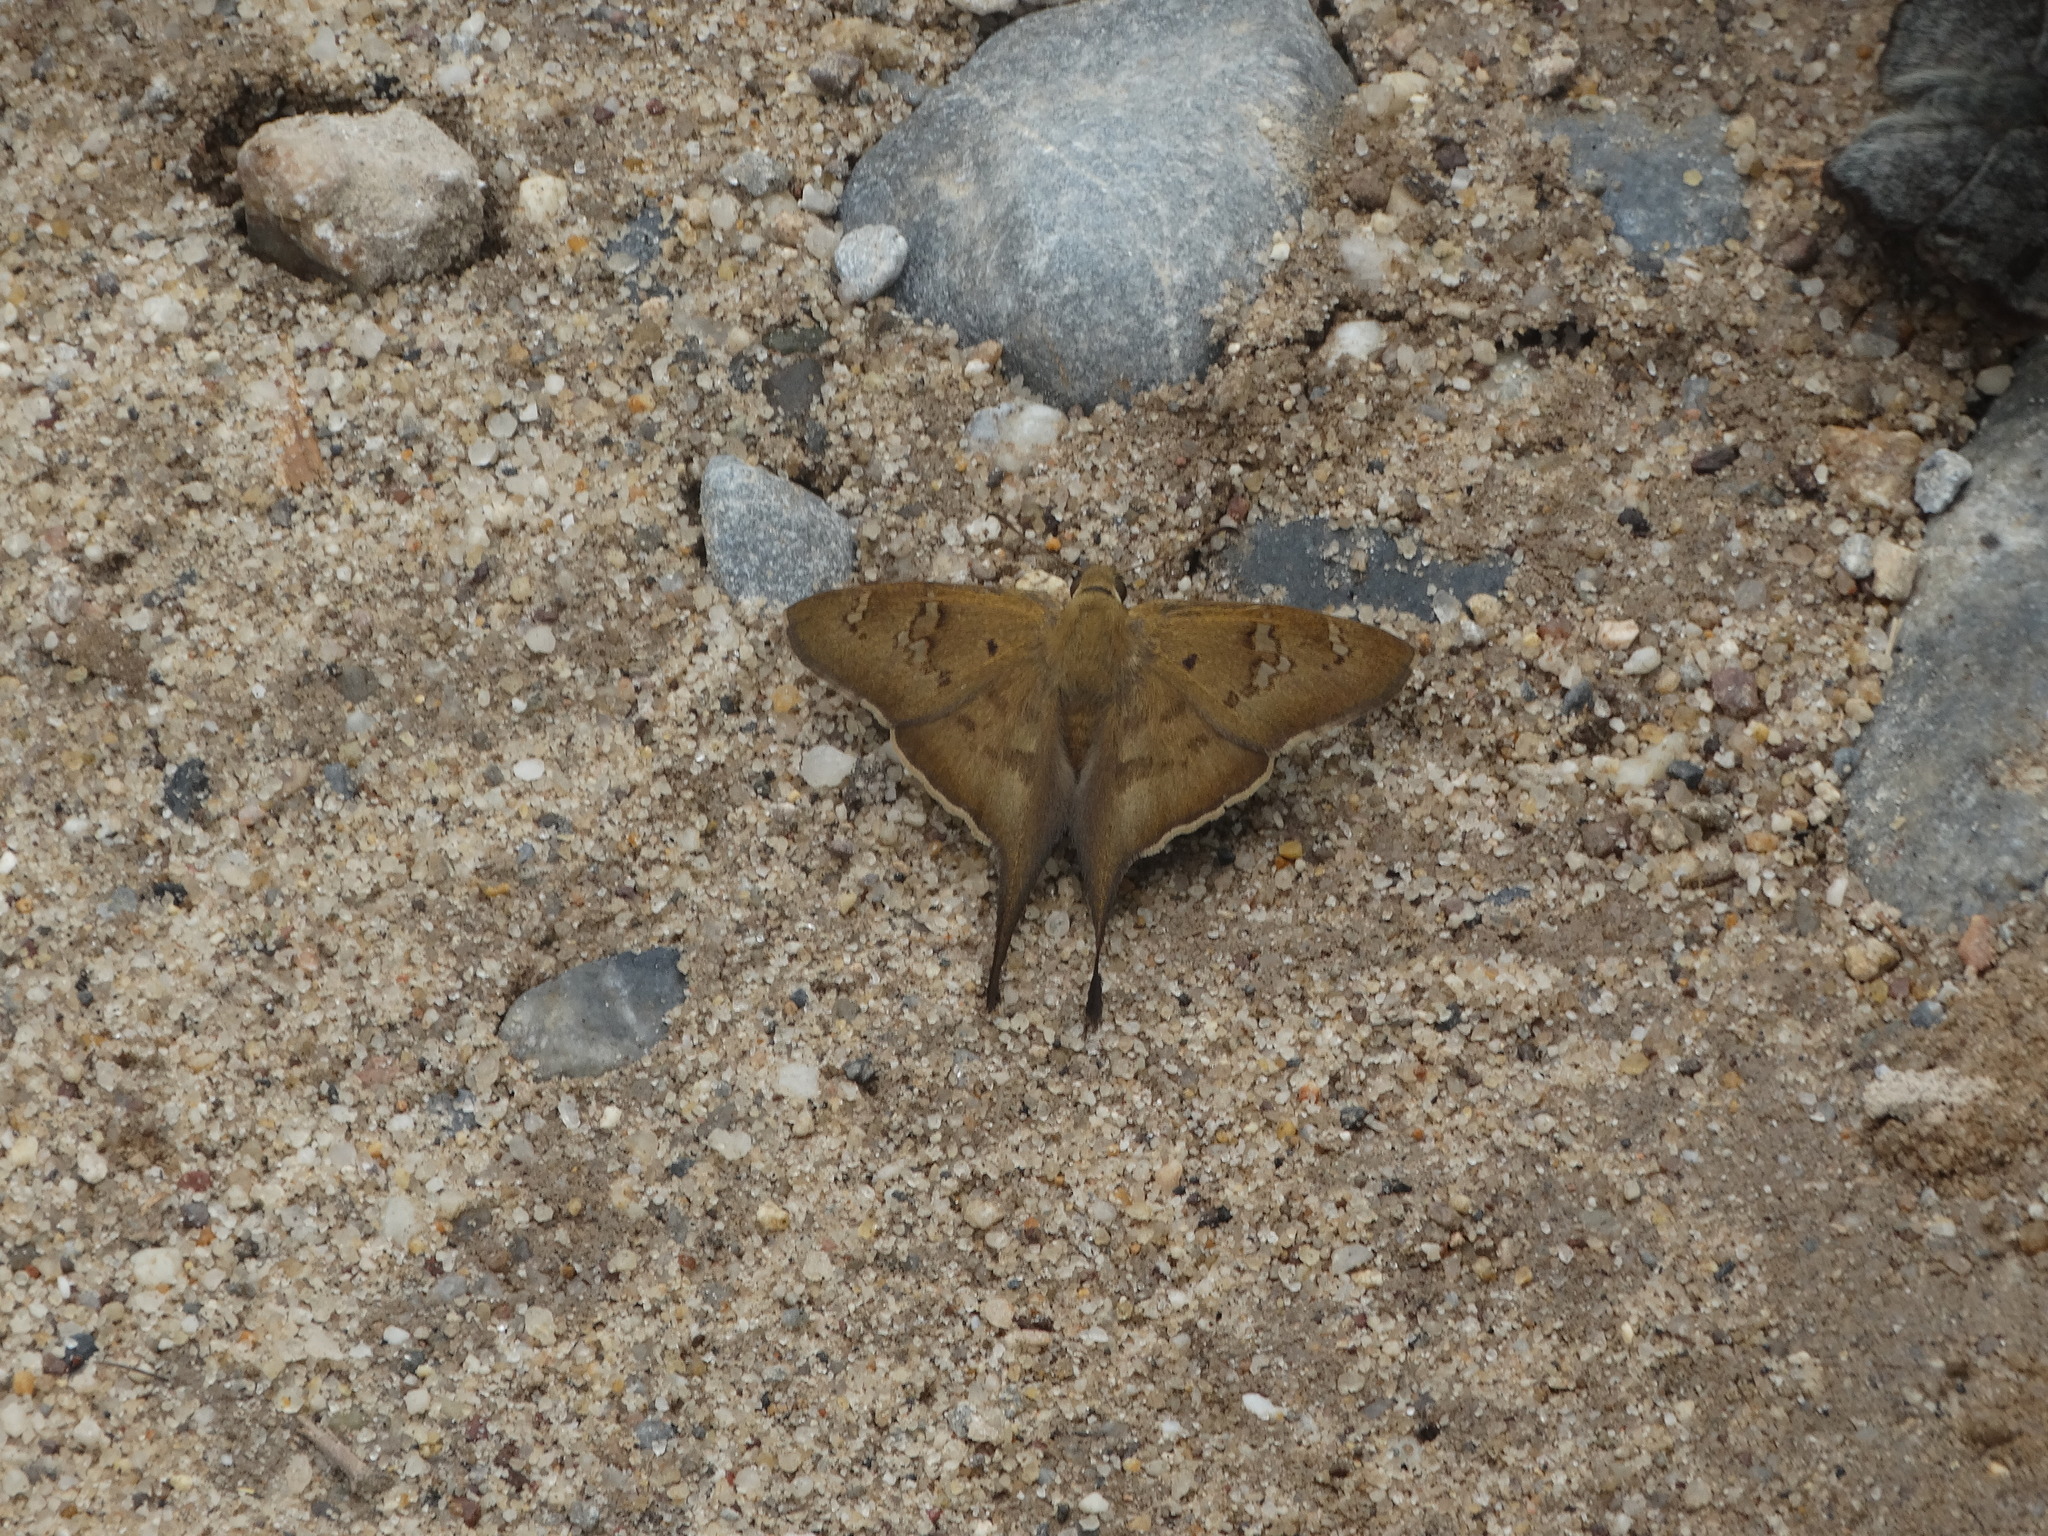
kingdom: Animalia
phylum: Arthropoda
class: Insecta
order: Lepidoptera
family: Hesperiidae
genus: Ectomis
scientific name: Ectomis
